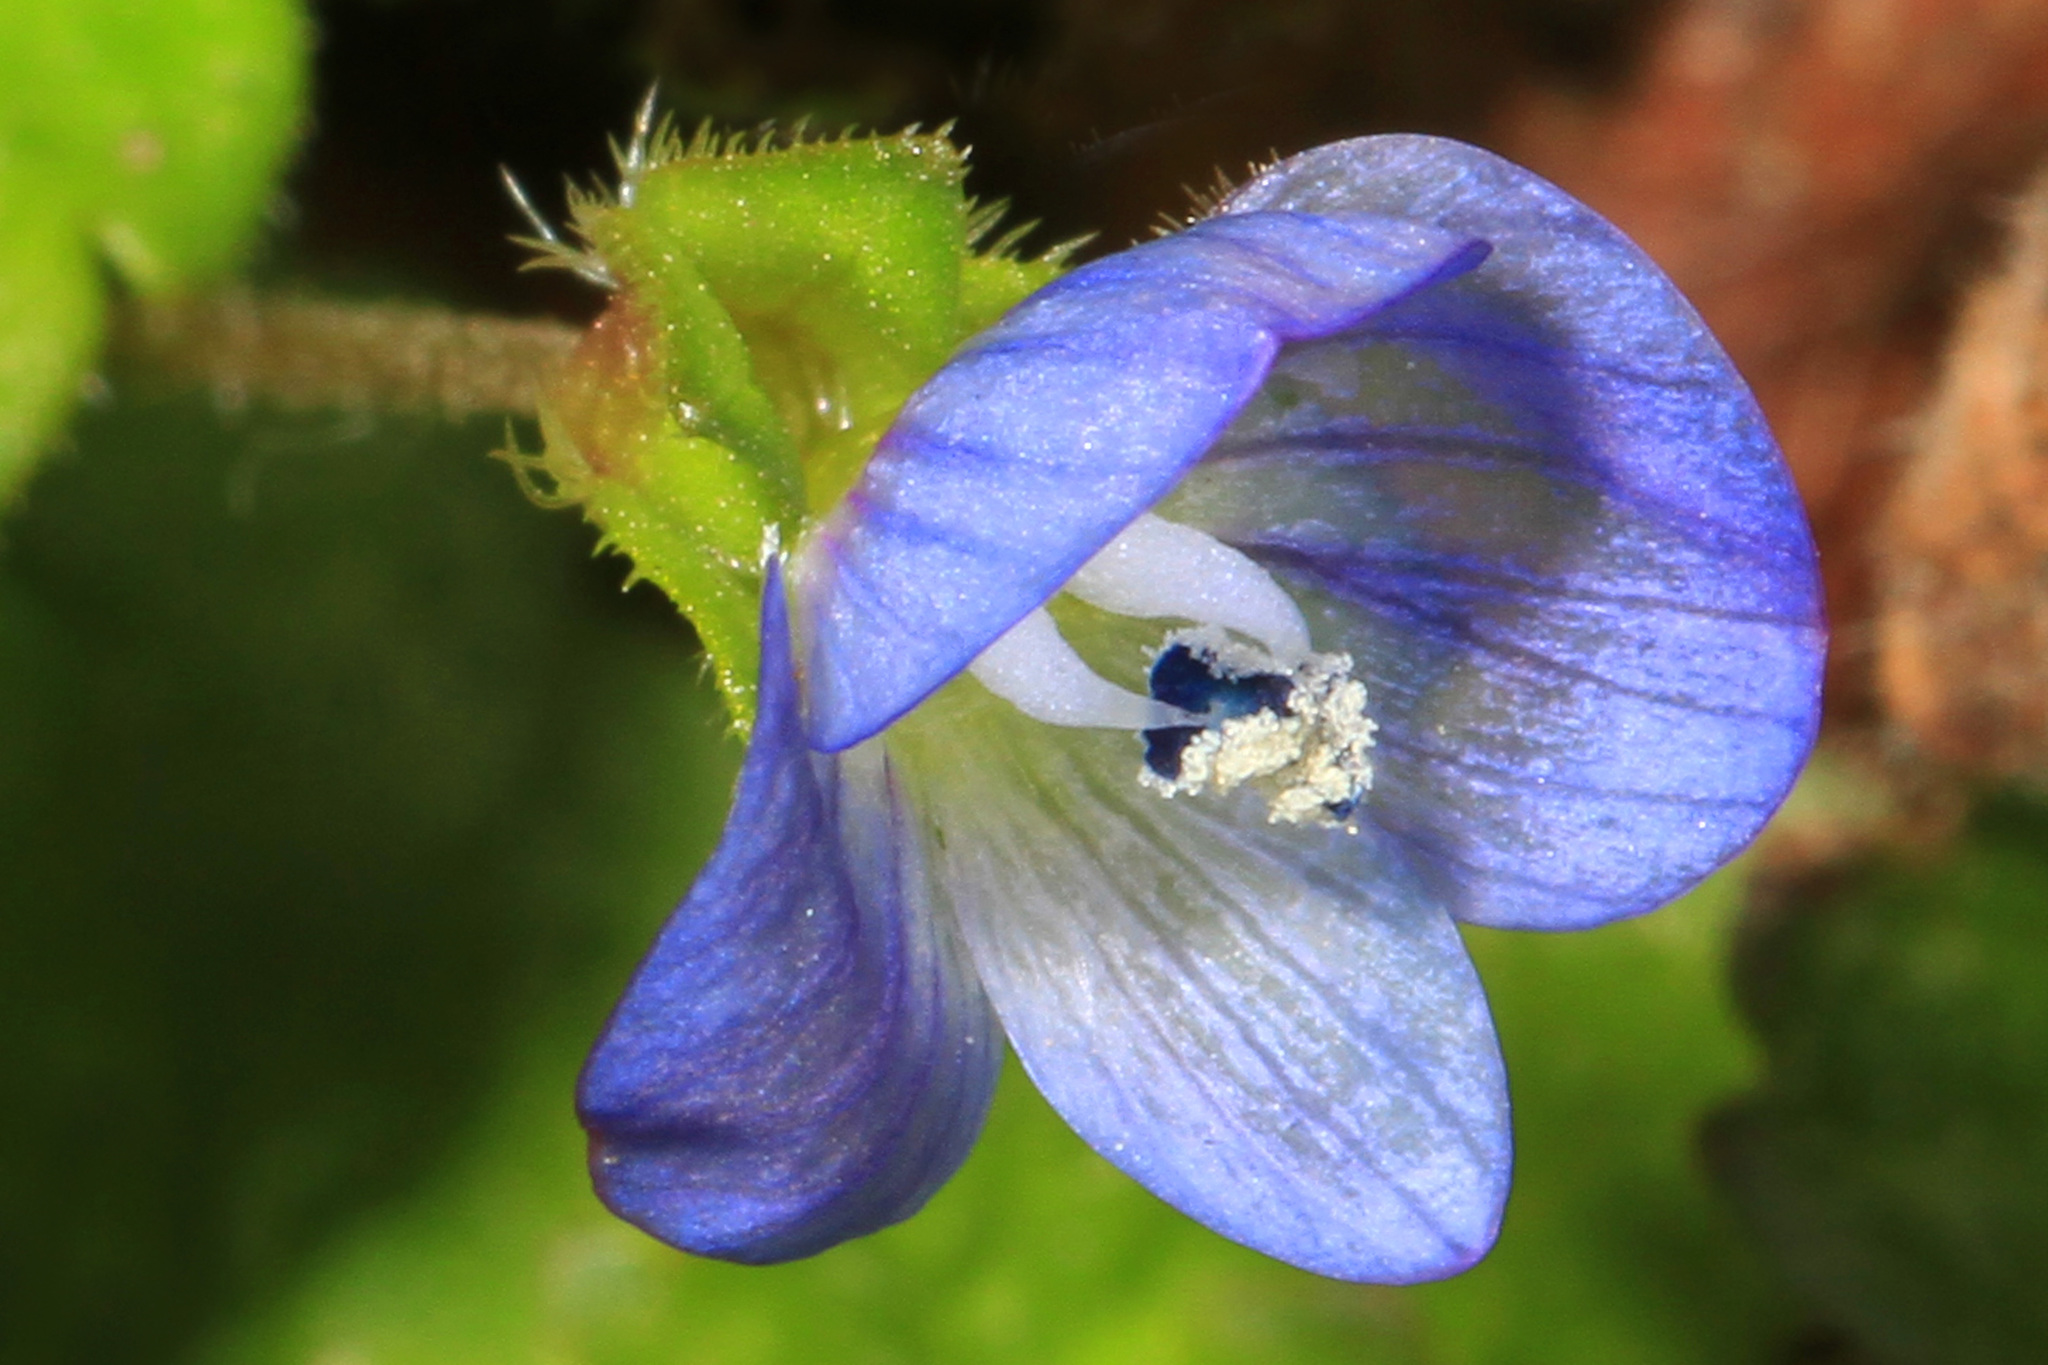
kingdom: Plantae
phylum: Tracheophyta
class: Magnoliopsida
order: Lamiales
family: Plantaginaceae
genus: Veronica
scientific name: Veronica persica
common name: Common field-speedwell
